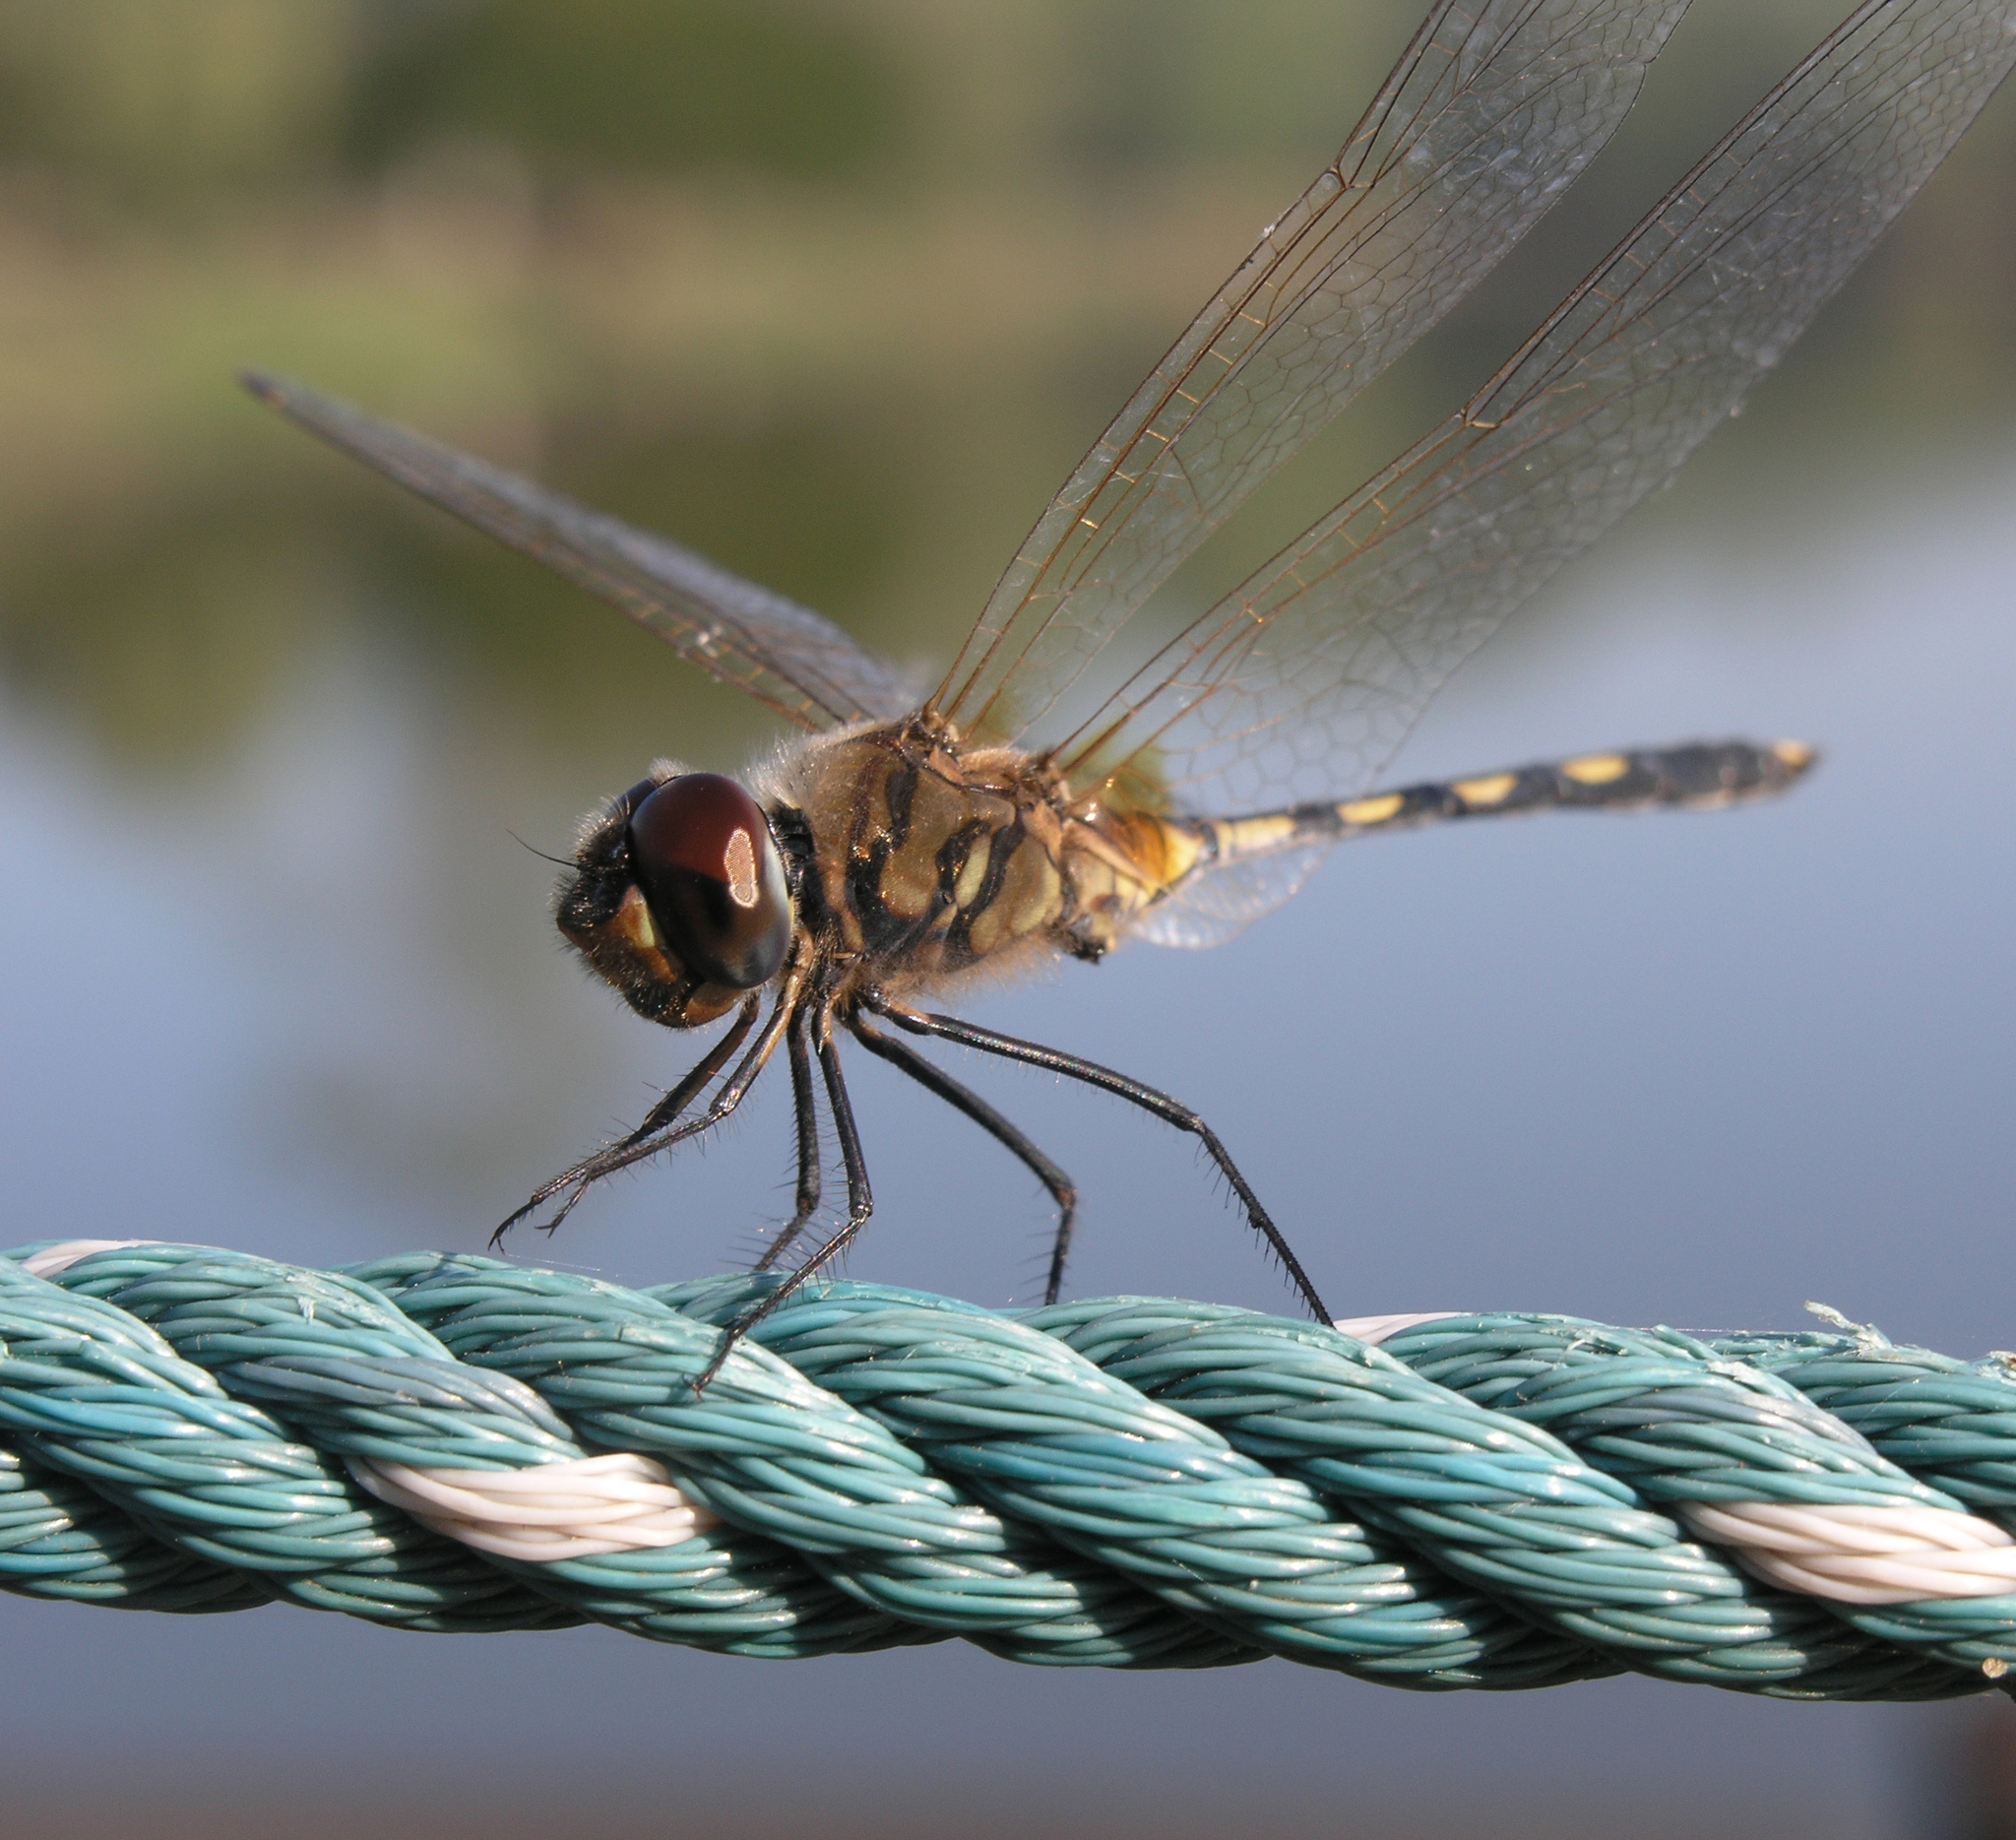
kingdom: Animalia
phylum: Arthropoda
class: Insecta
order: Odonata
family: Libellulidae
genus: Trithemis
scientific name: Trithemis pallidinervis
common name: Dancing dropwing
